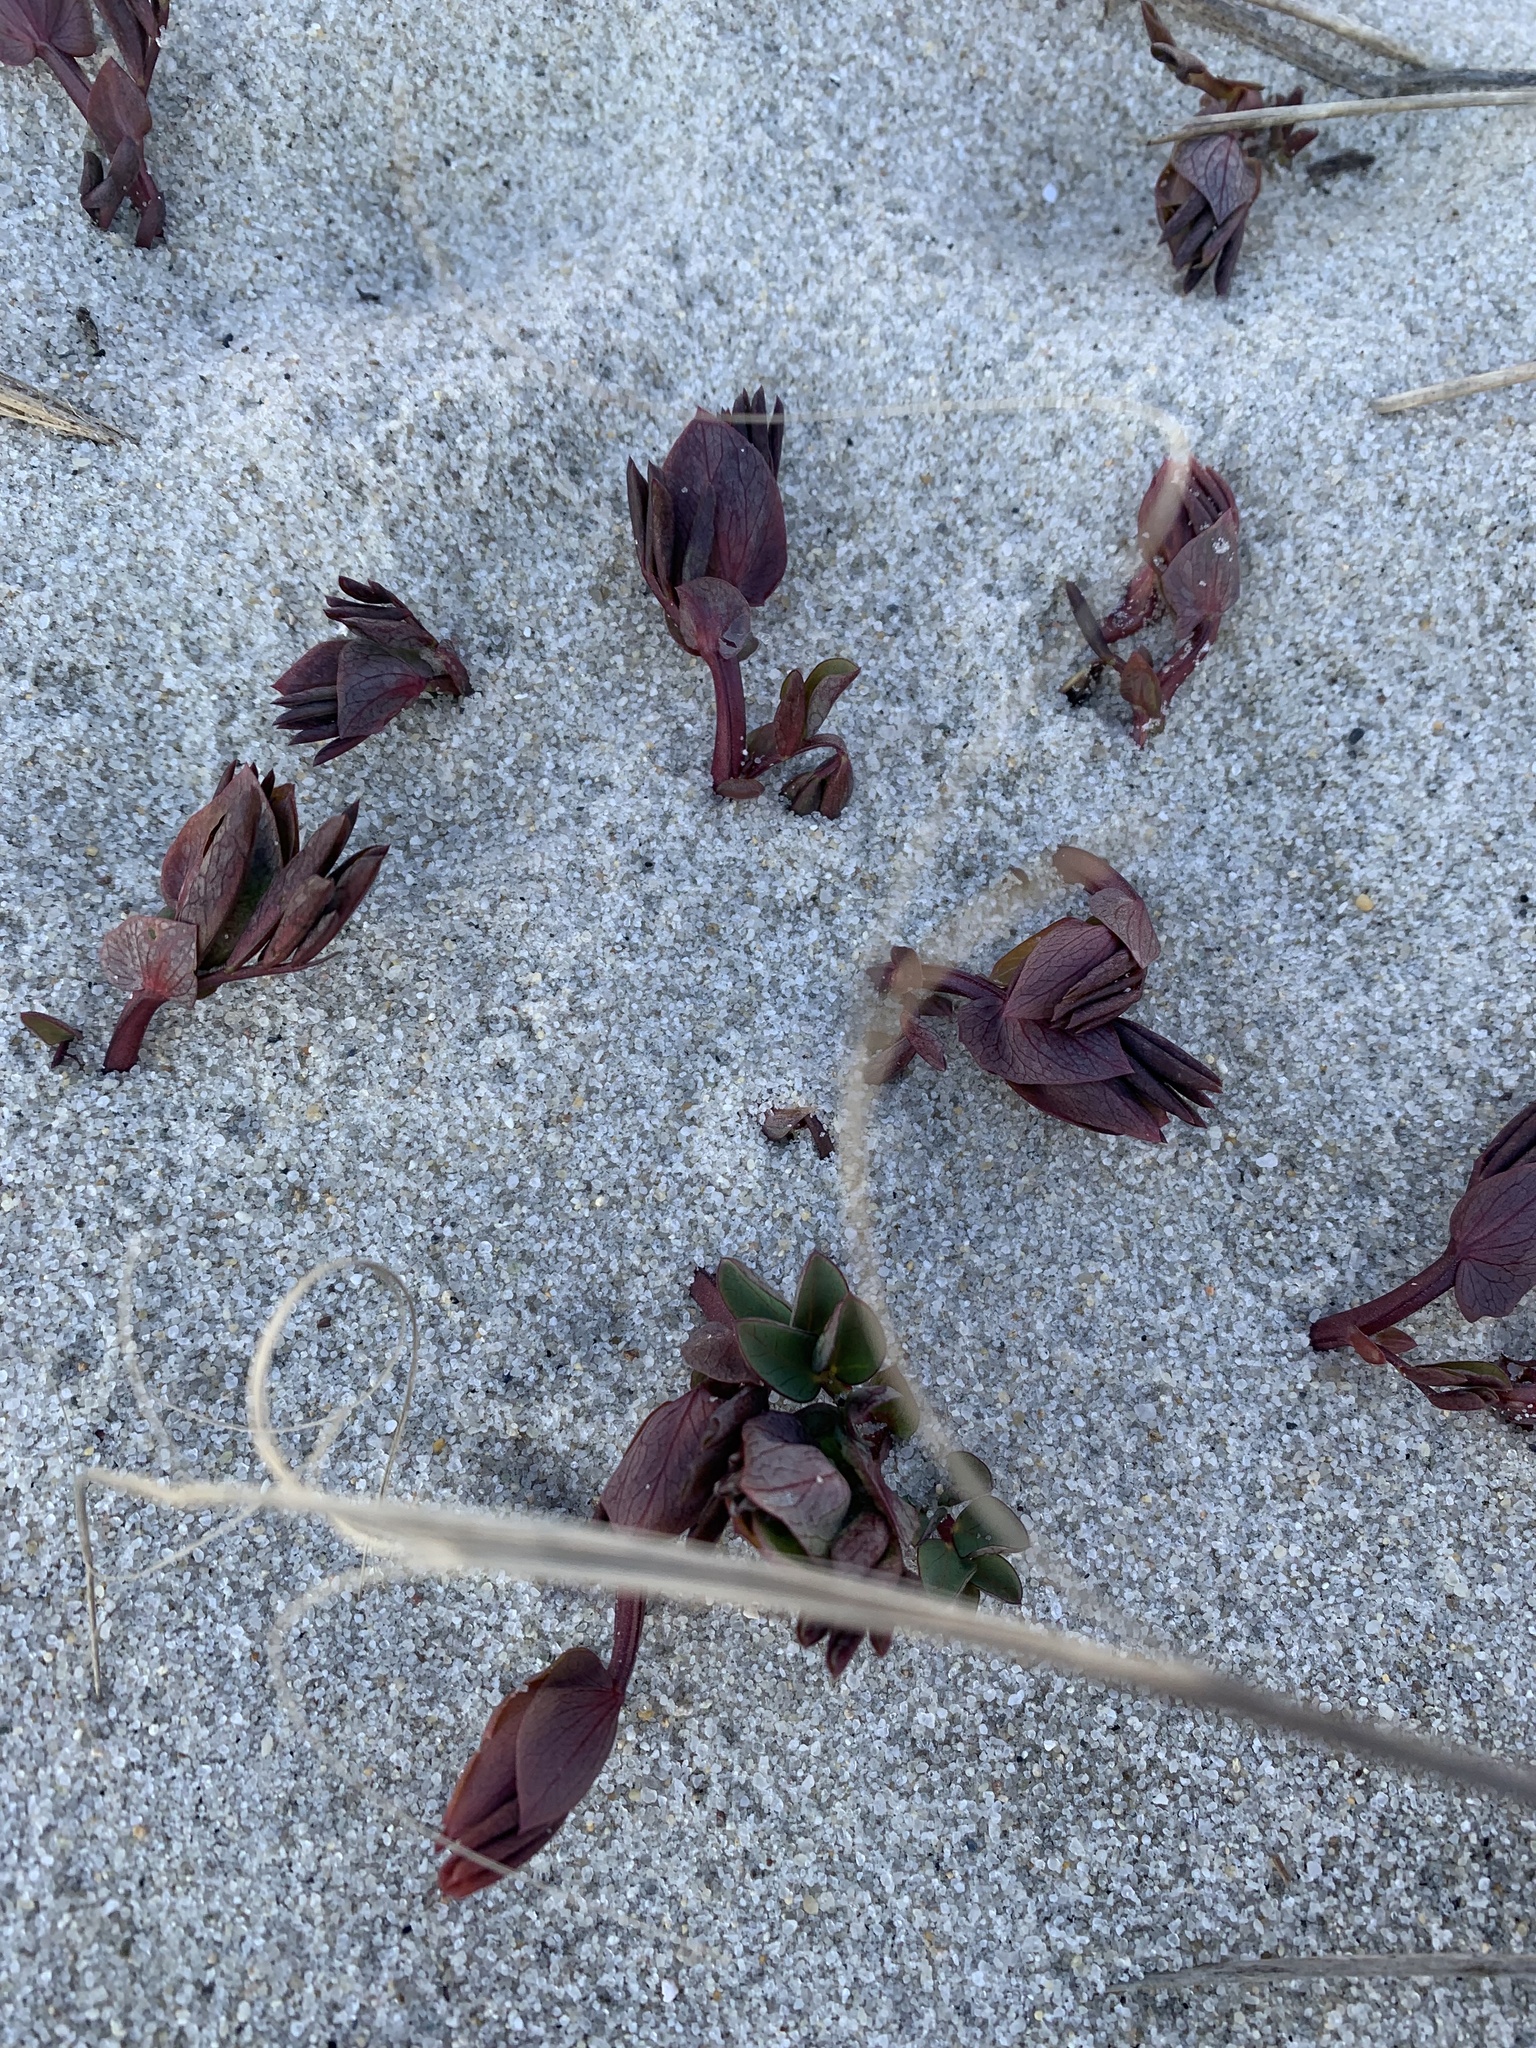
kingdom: Plantae
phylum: Tracheophyta
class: Magnoliopsida
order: Fabales
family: Fabaceae
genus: Lathyrus
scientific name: Lathyrus japonicus
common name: Sea pea
